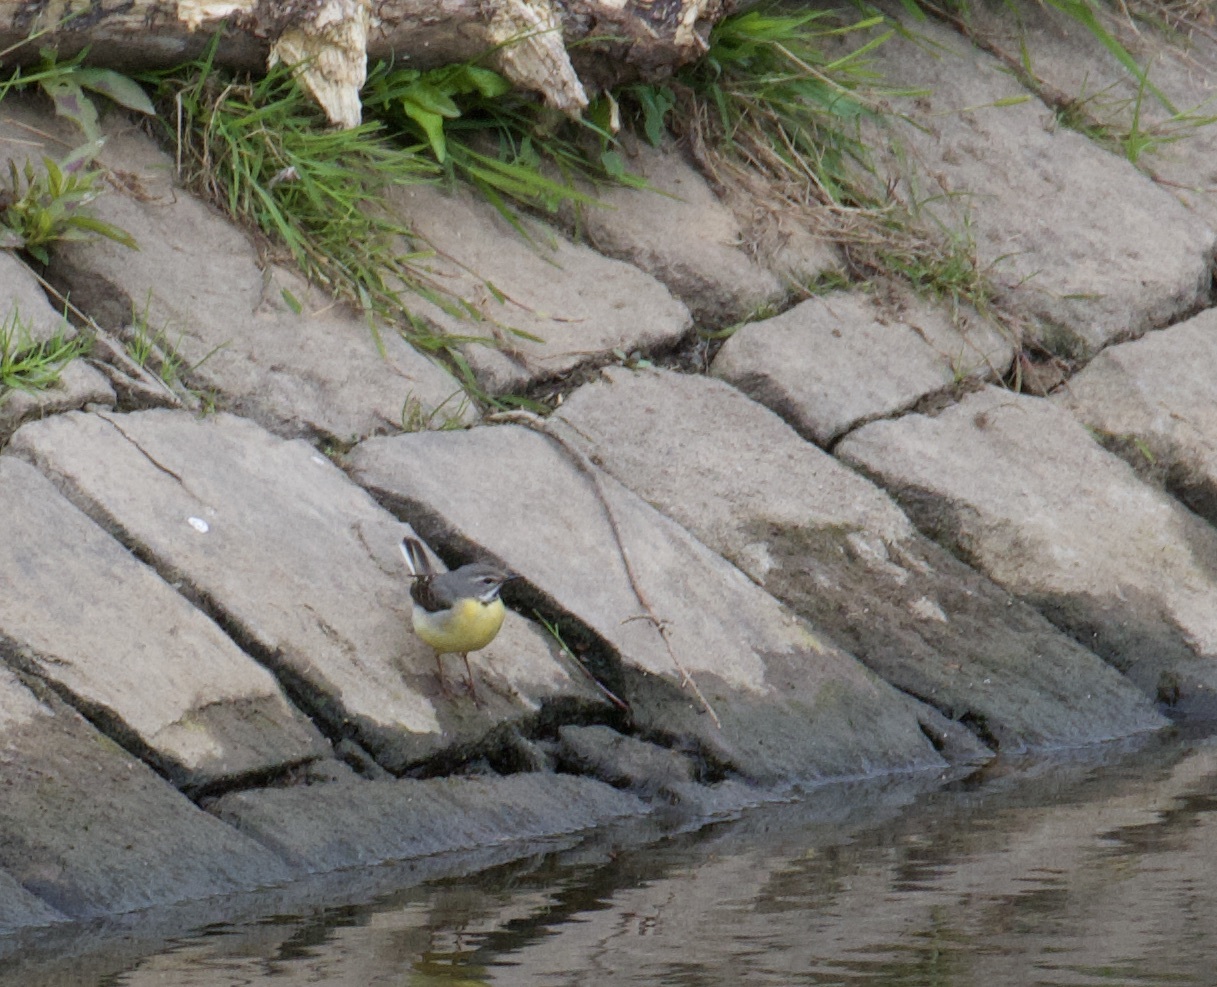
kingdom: Animalia
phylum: Chordata
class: Aves
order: Passeriformes
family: Motacillidae
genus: Motacilla
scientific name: Motacilla cinerea
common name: Grey wagtail
